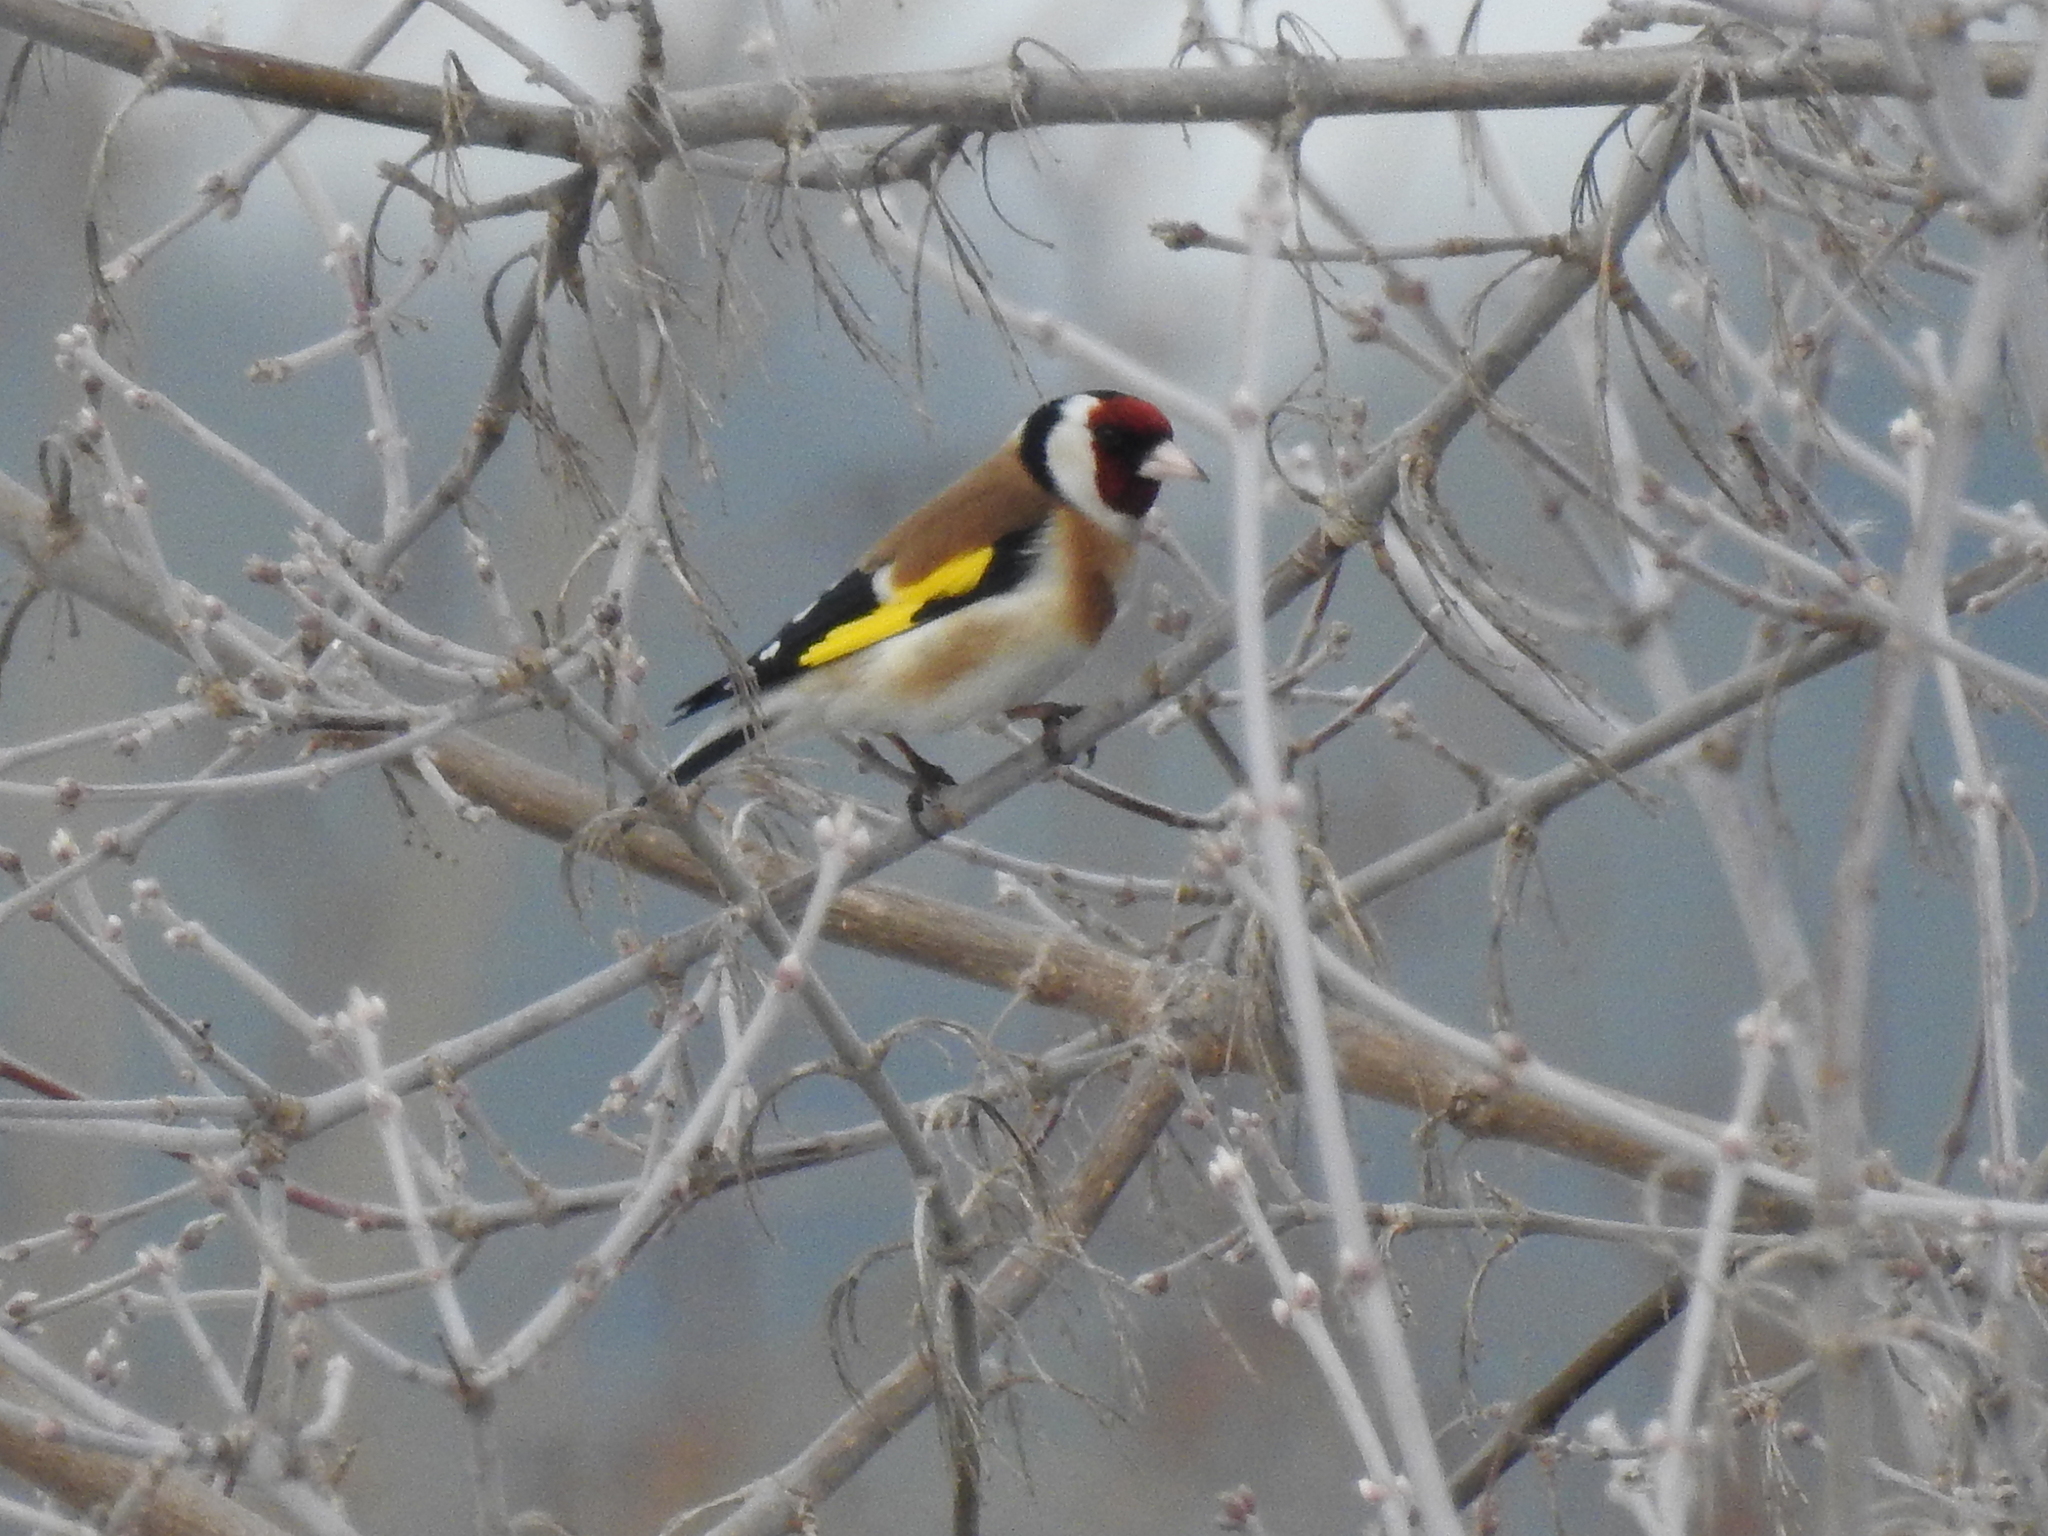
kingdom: Animalia
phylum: Chordata
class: Aves
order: Passeriformes
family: Fringillidae
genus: Carduelis
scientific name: Carduelis carduelis
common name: European goldfinch
